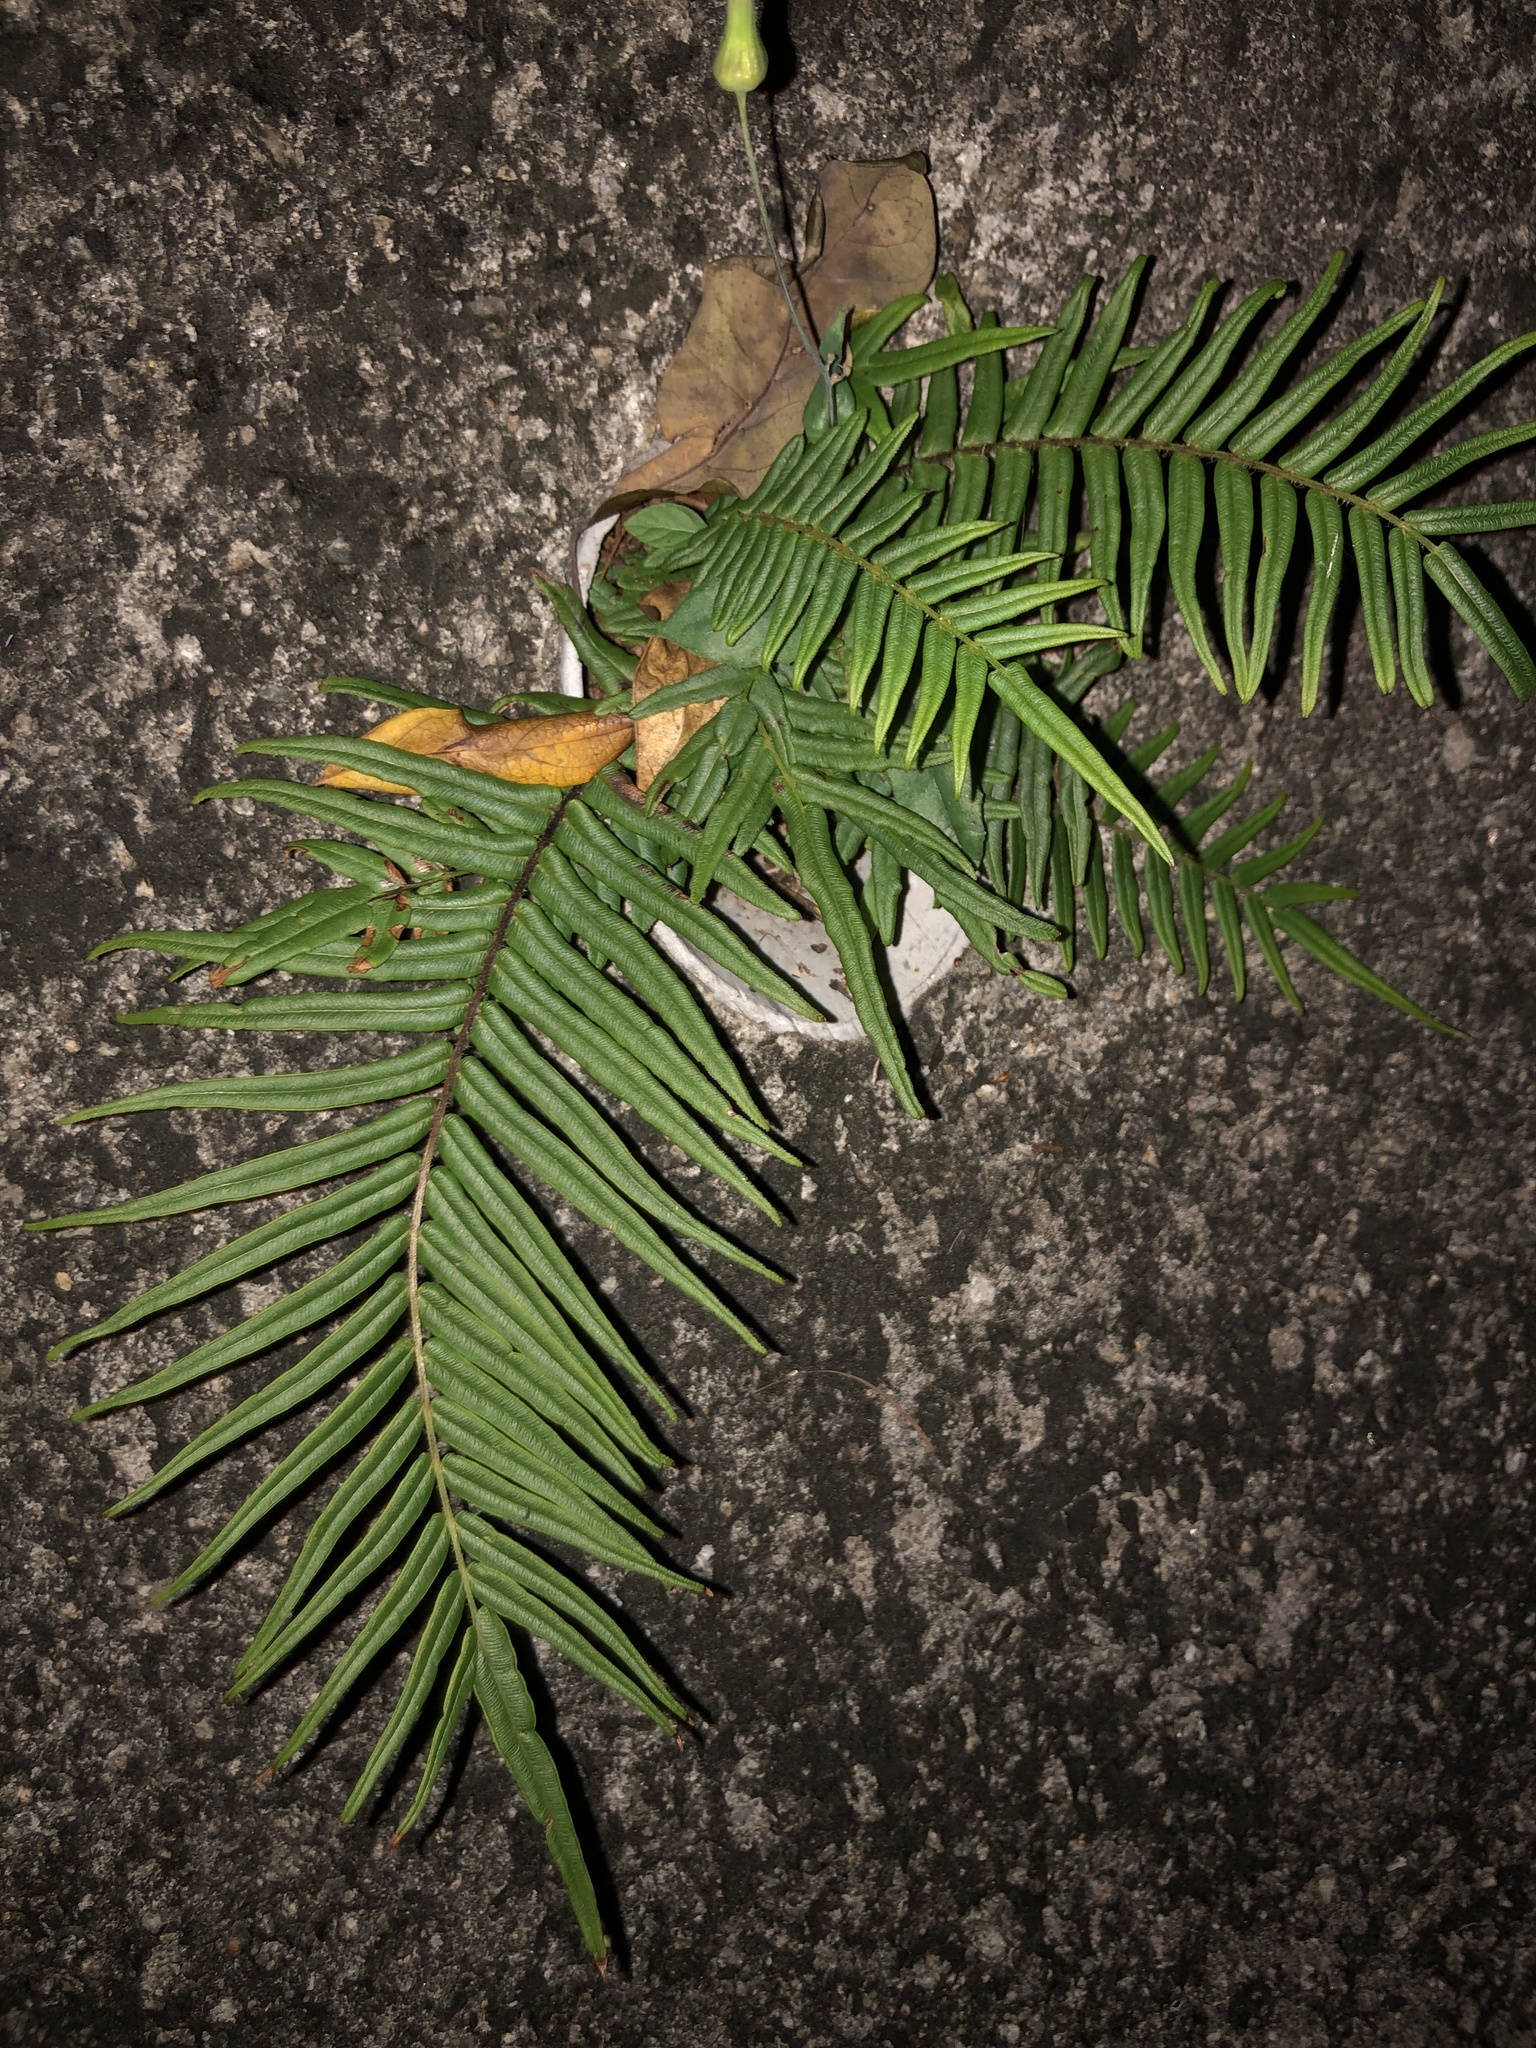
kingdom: Plantae
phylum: Tracheophyta
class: Polypodiopsida
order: Polypodiales
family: Pteridaceae
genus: Pteris
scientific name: Pteris vittata
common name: Ladder brake
